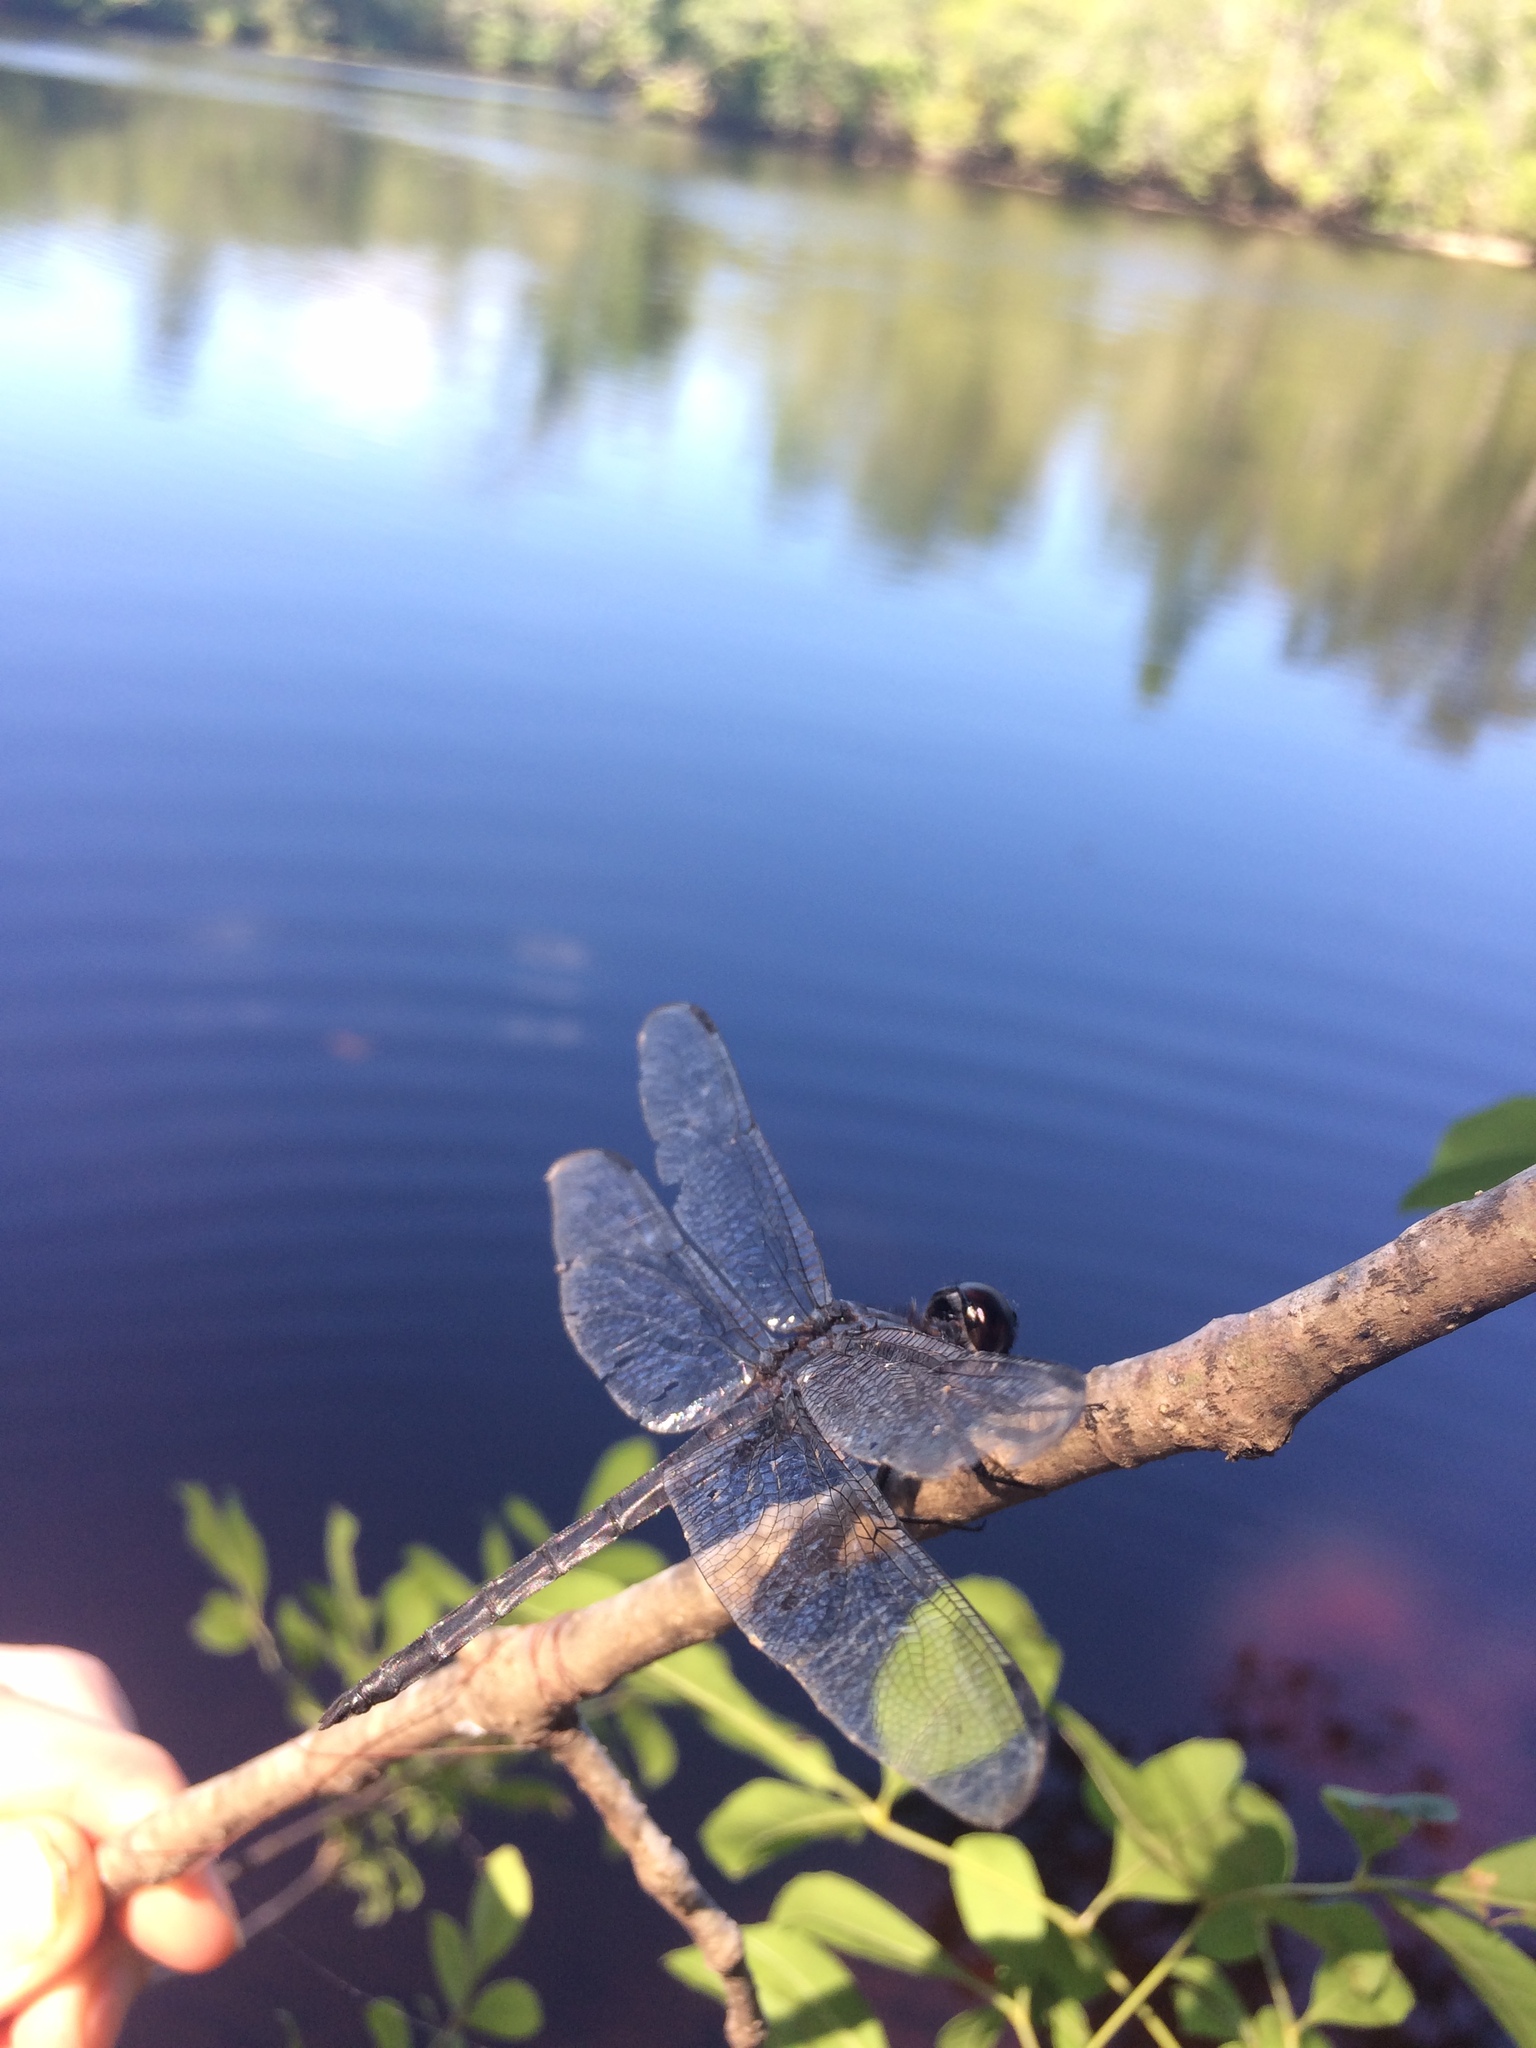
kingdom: Animalia
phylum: Arthropoda
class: Insecta
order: Odonata
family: Libellulidae
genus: Libellula
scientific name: Libellula incesta
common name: Slaty skimmer
